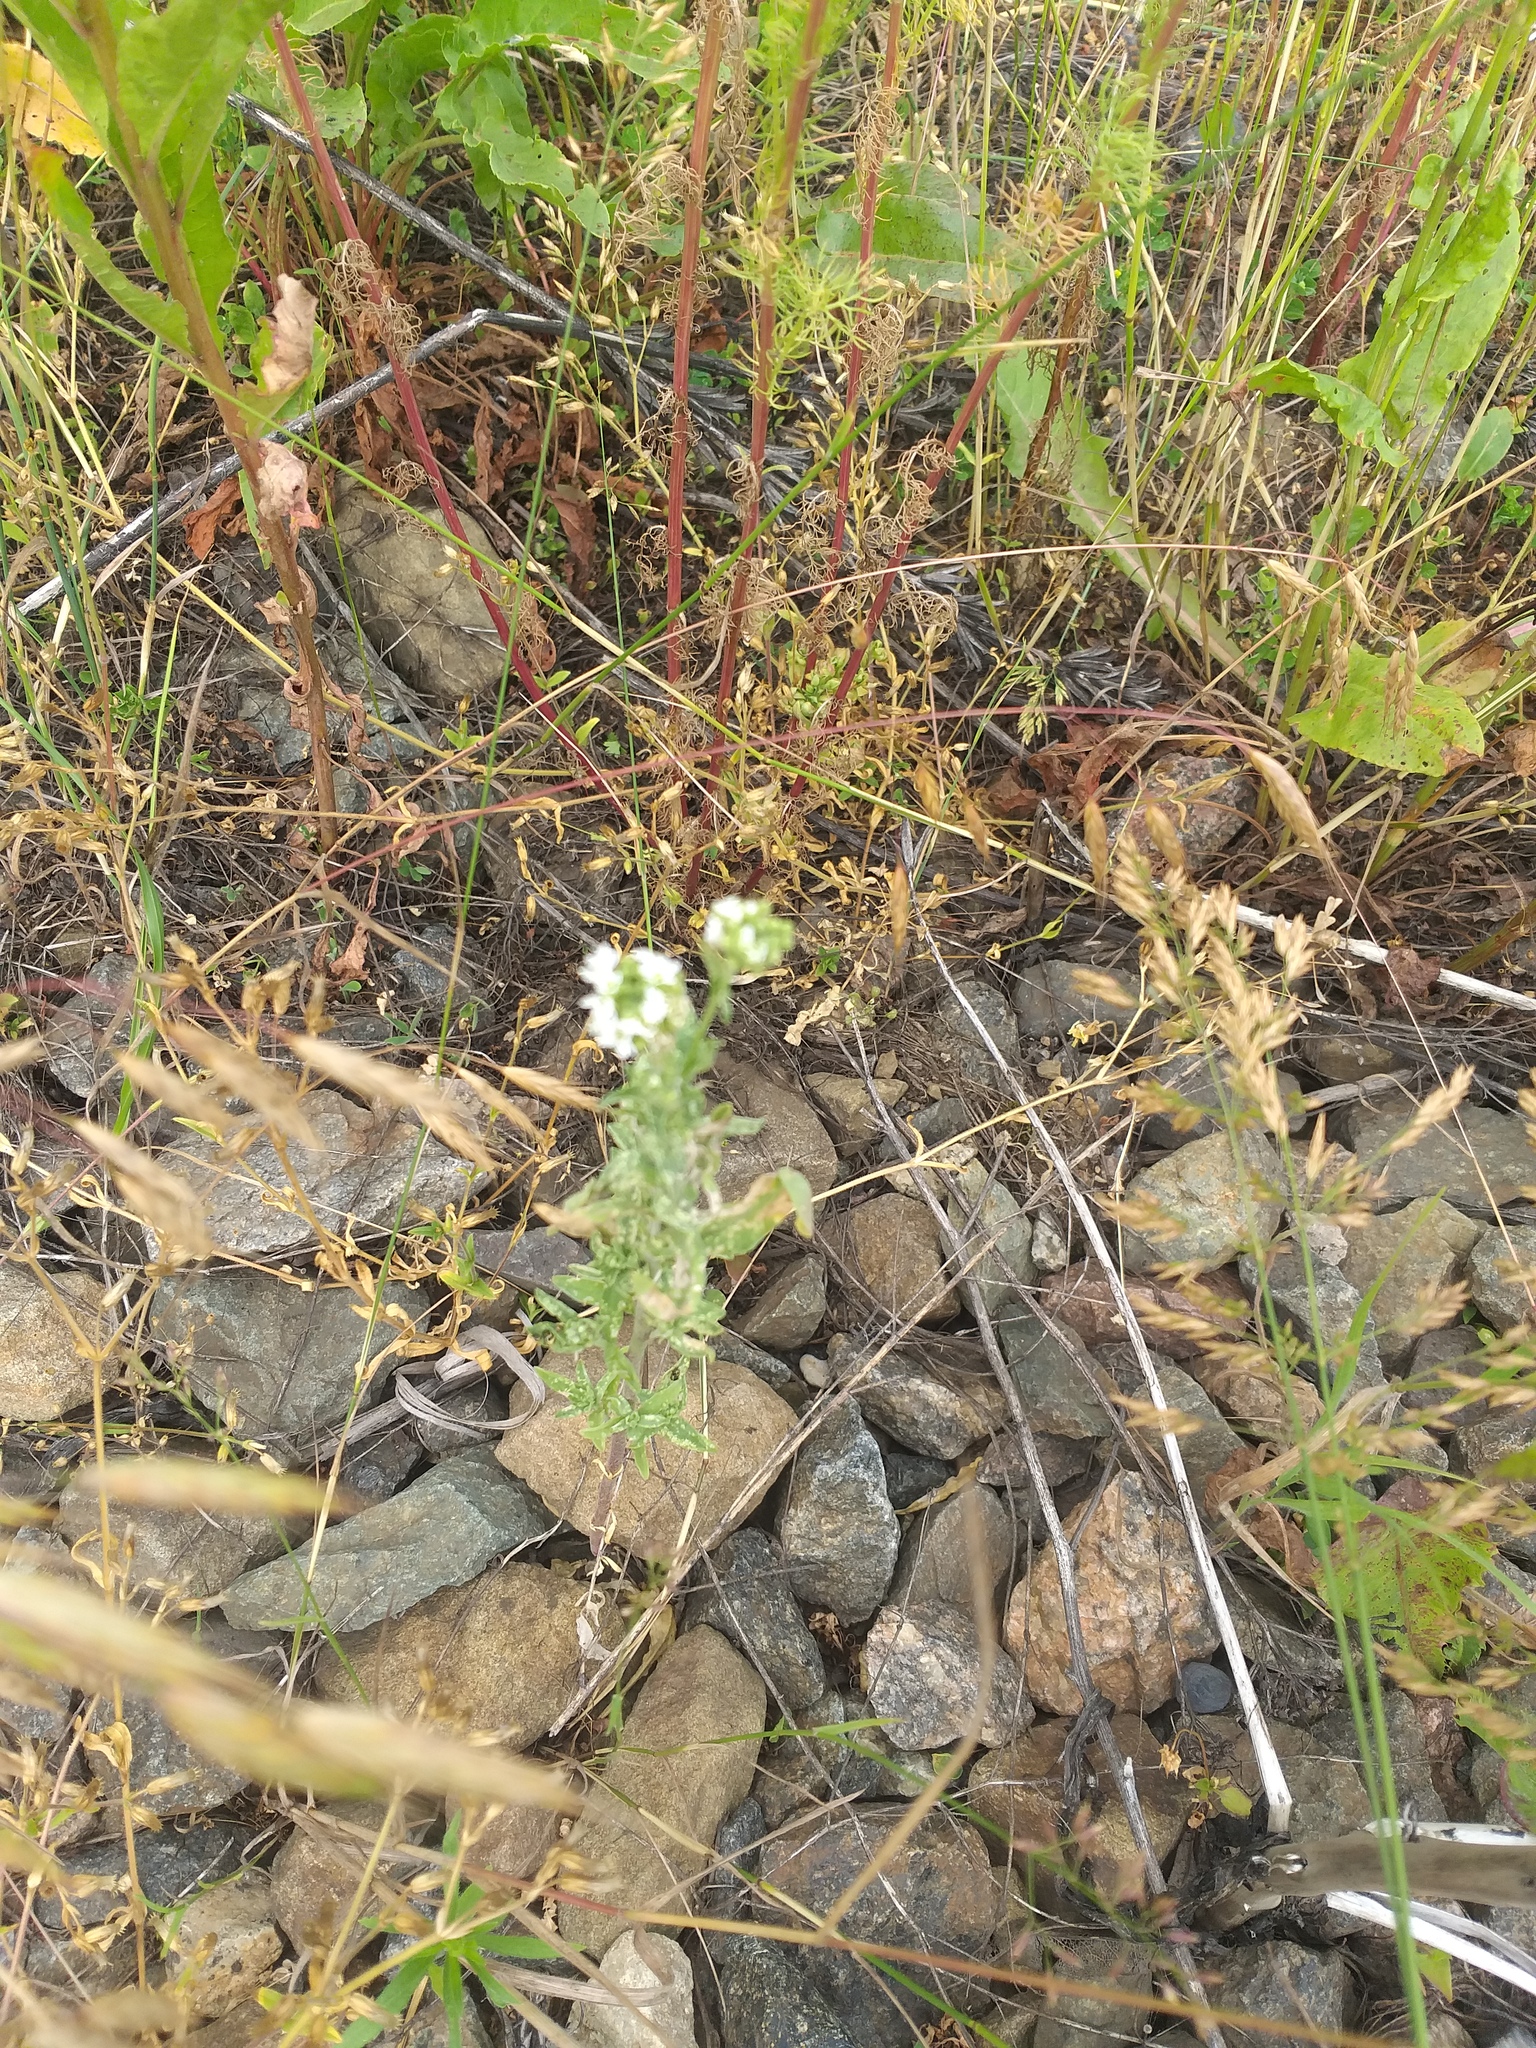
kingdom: Plantae
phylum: Tracheophyta
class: Magnoliopsida
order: Brassicales
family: Brassicaceae
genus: Berteroa
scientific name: Berteroa incana
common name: Hoary alison
